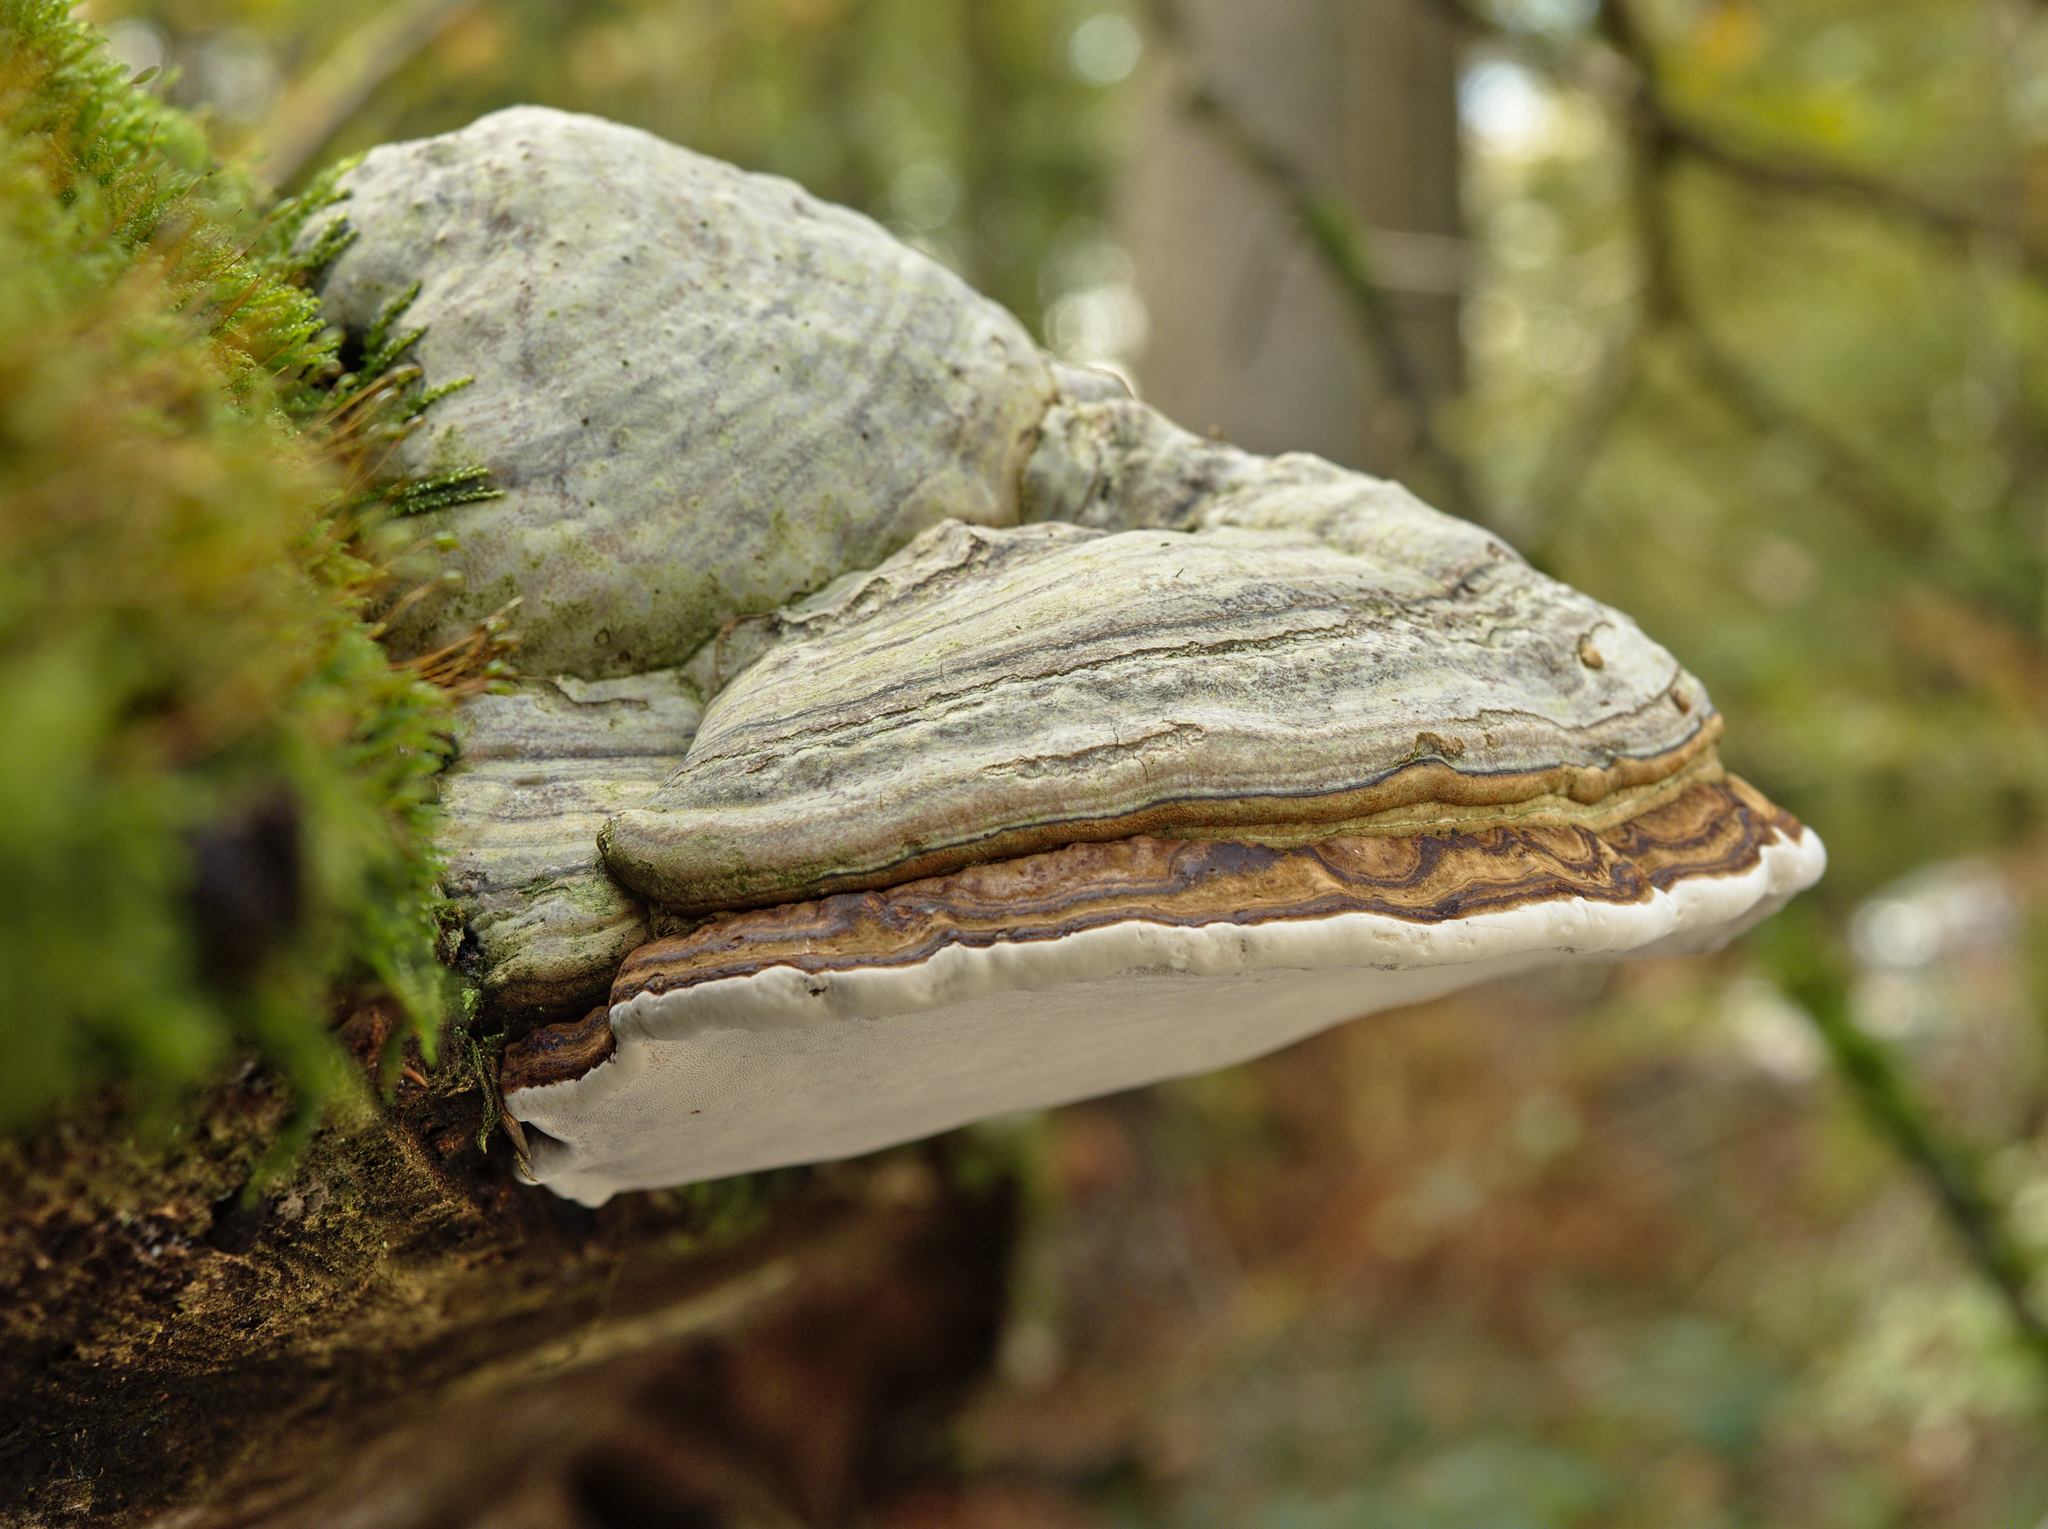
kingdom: Fungi
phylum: Basidiomycota
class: Agaricomycetes
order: Polyporales
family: Polyporaceae
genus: Fomes
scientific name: Fomes fomentarius
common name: Hoof fungus
